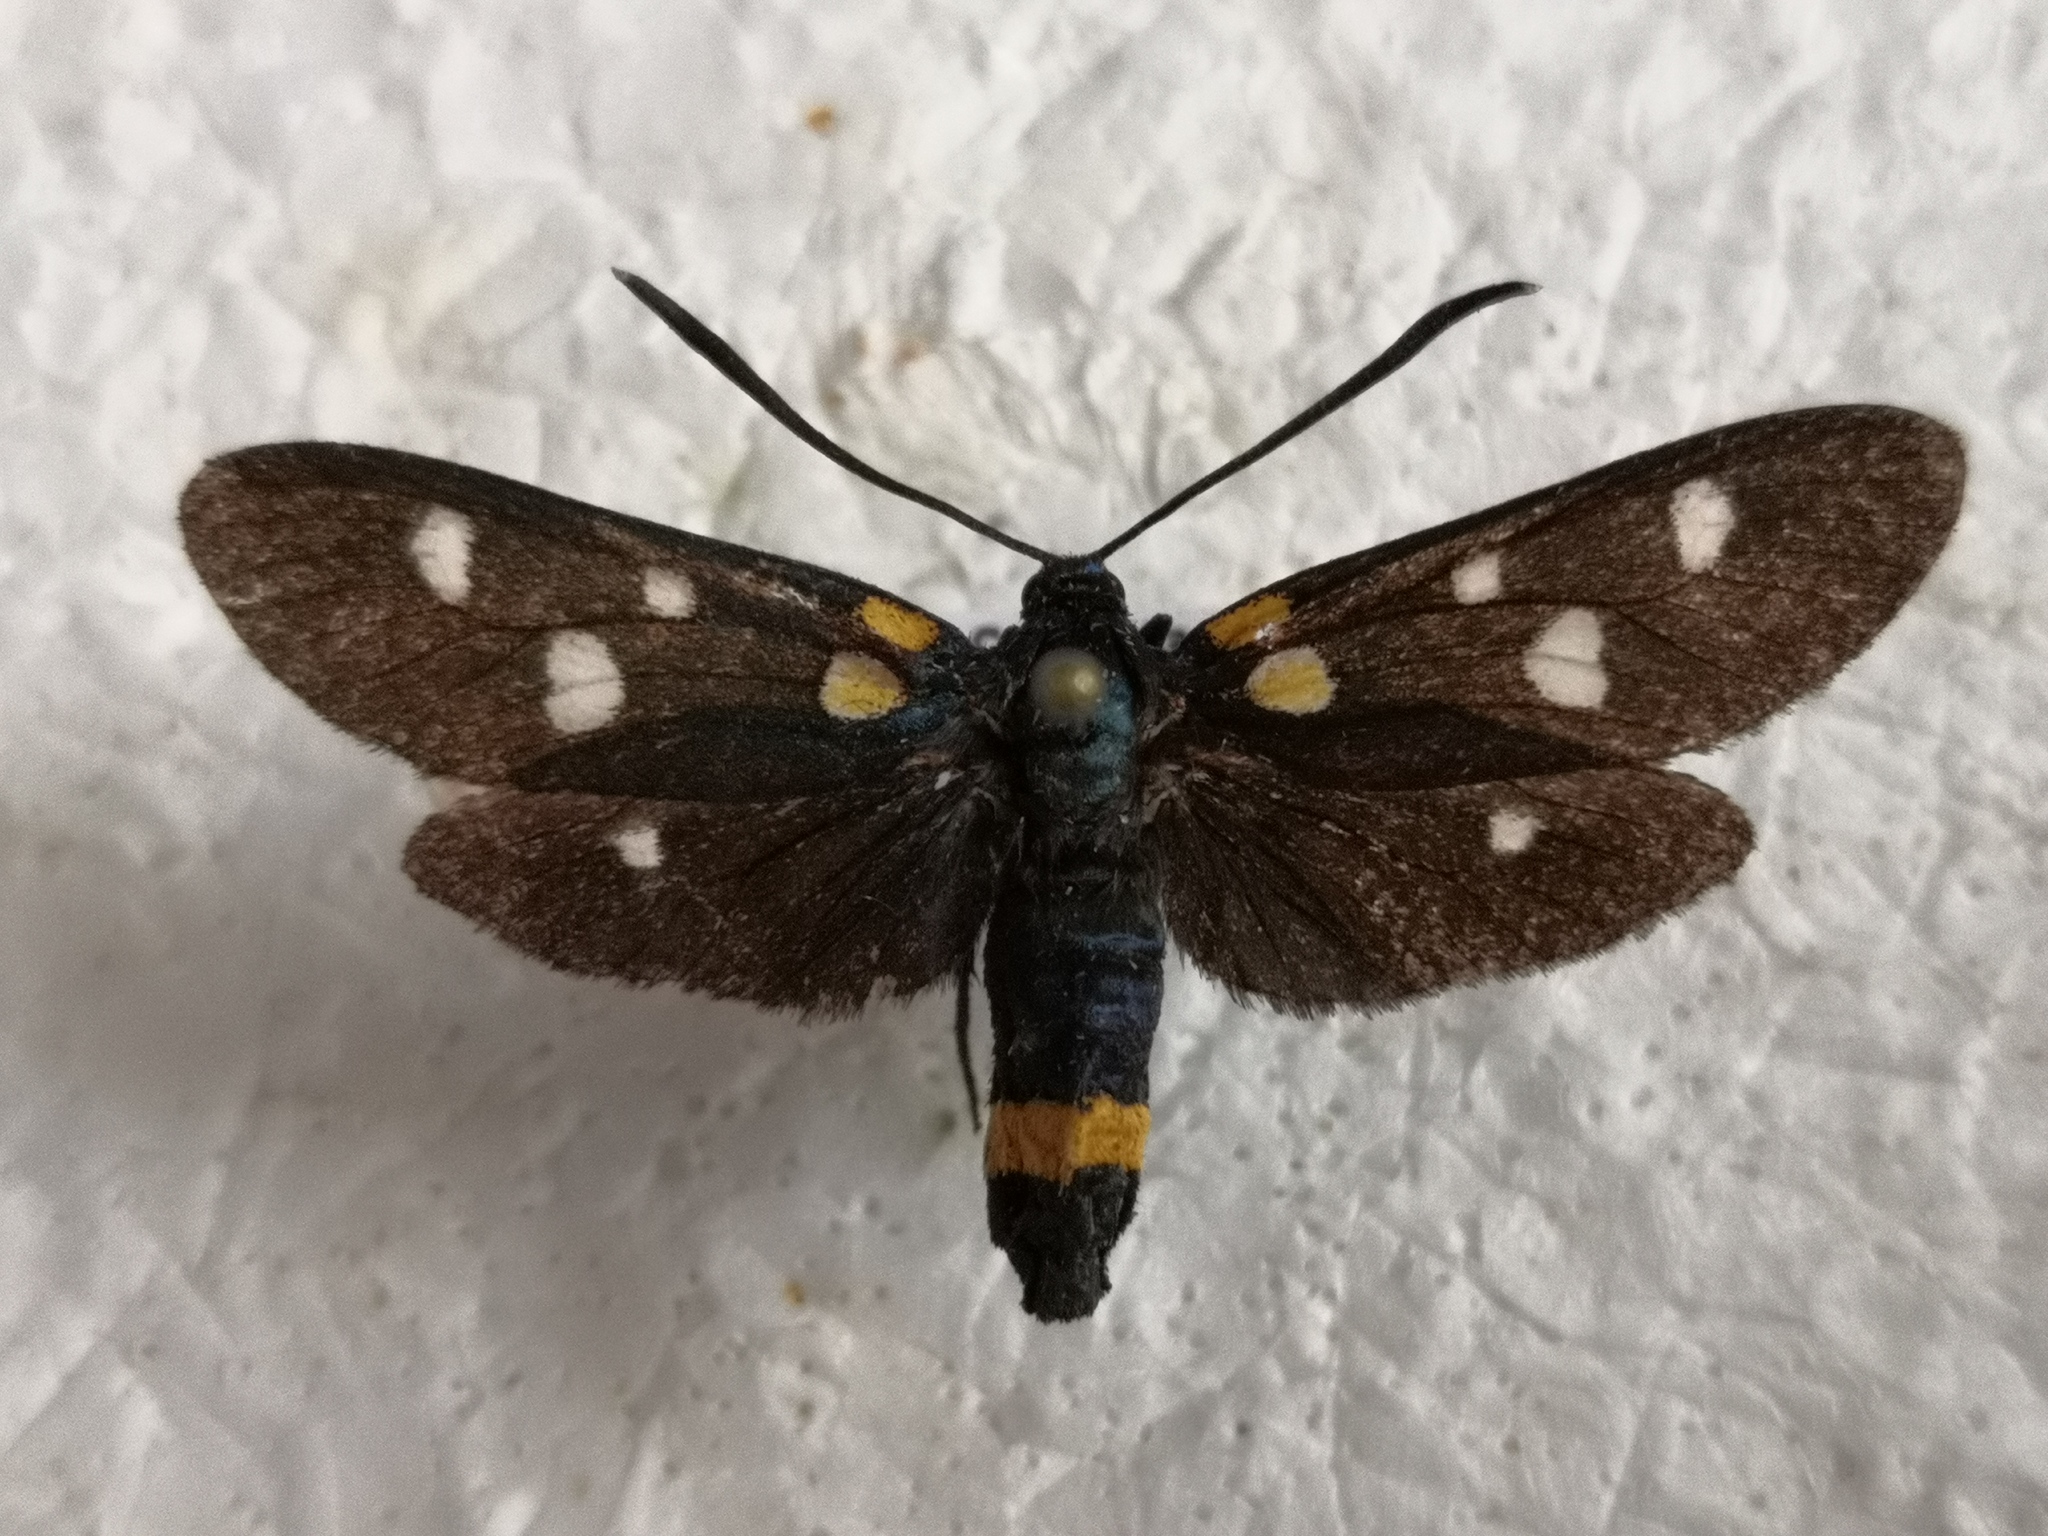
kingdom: Animalia
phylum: Arthropoda
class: Insecta
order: Lepidoptera
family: Zygaenidae
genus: Zygaena
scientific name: Zygaena ephialtes
